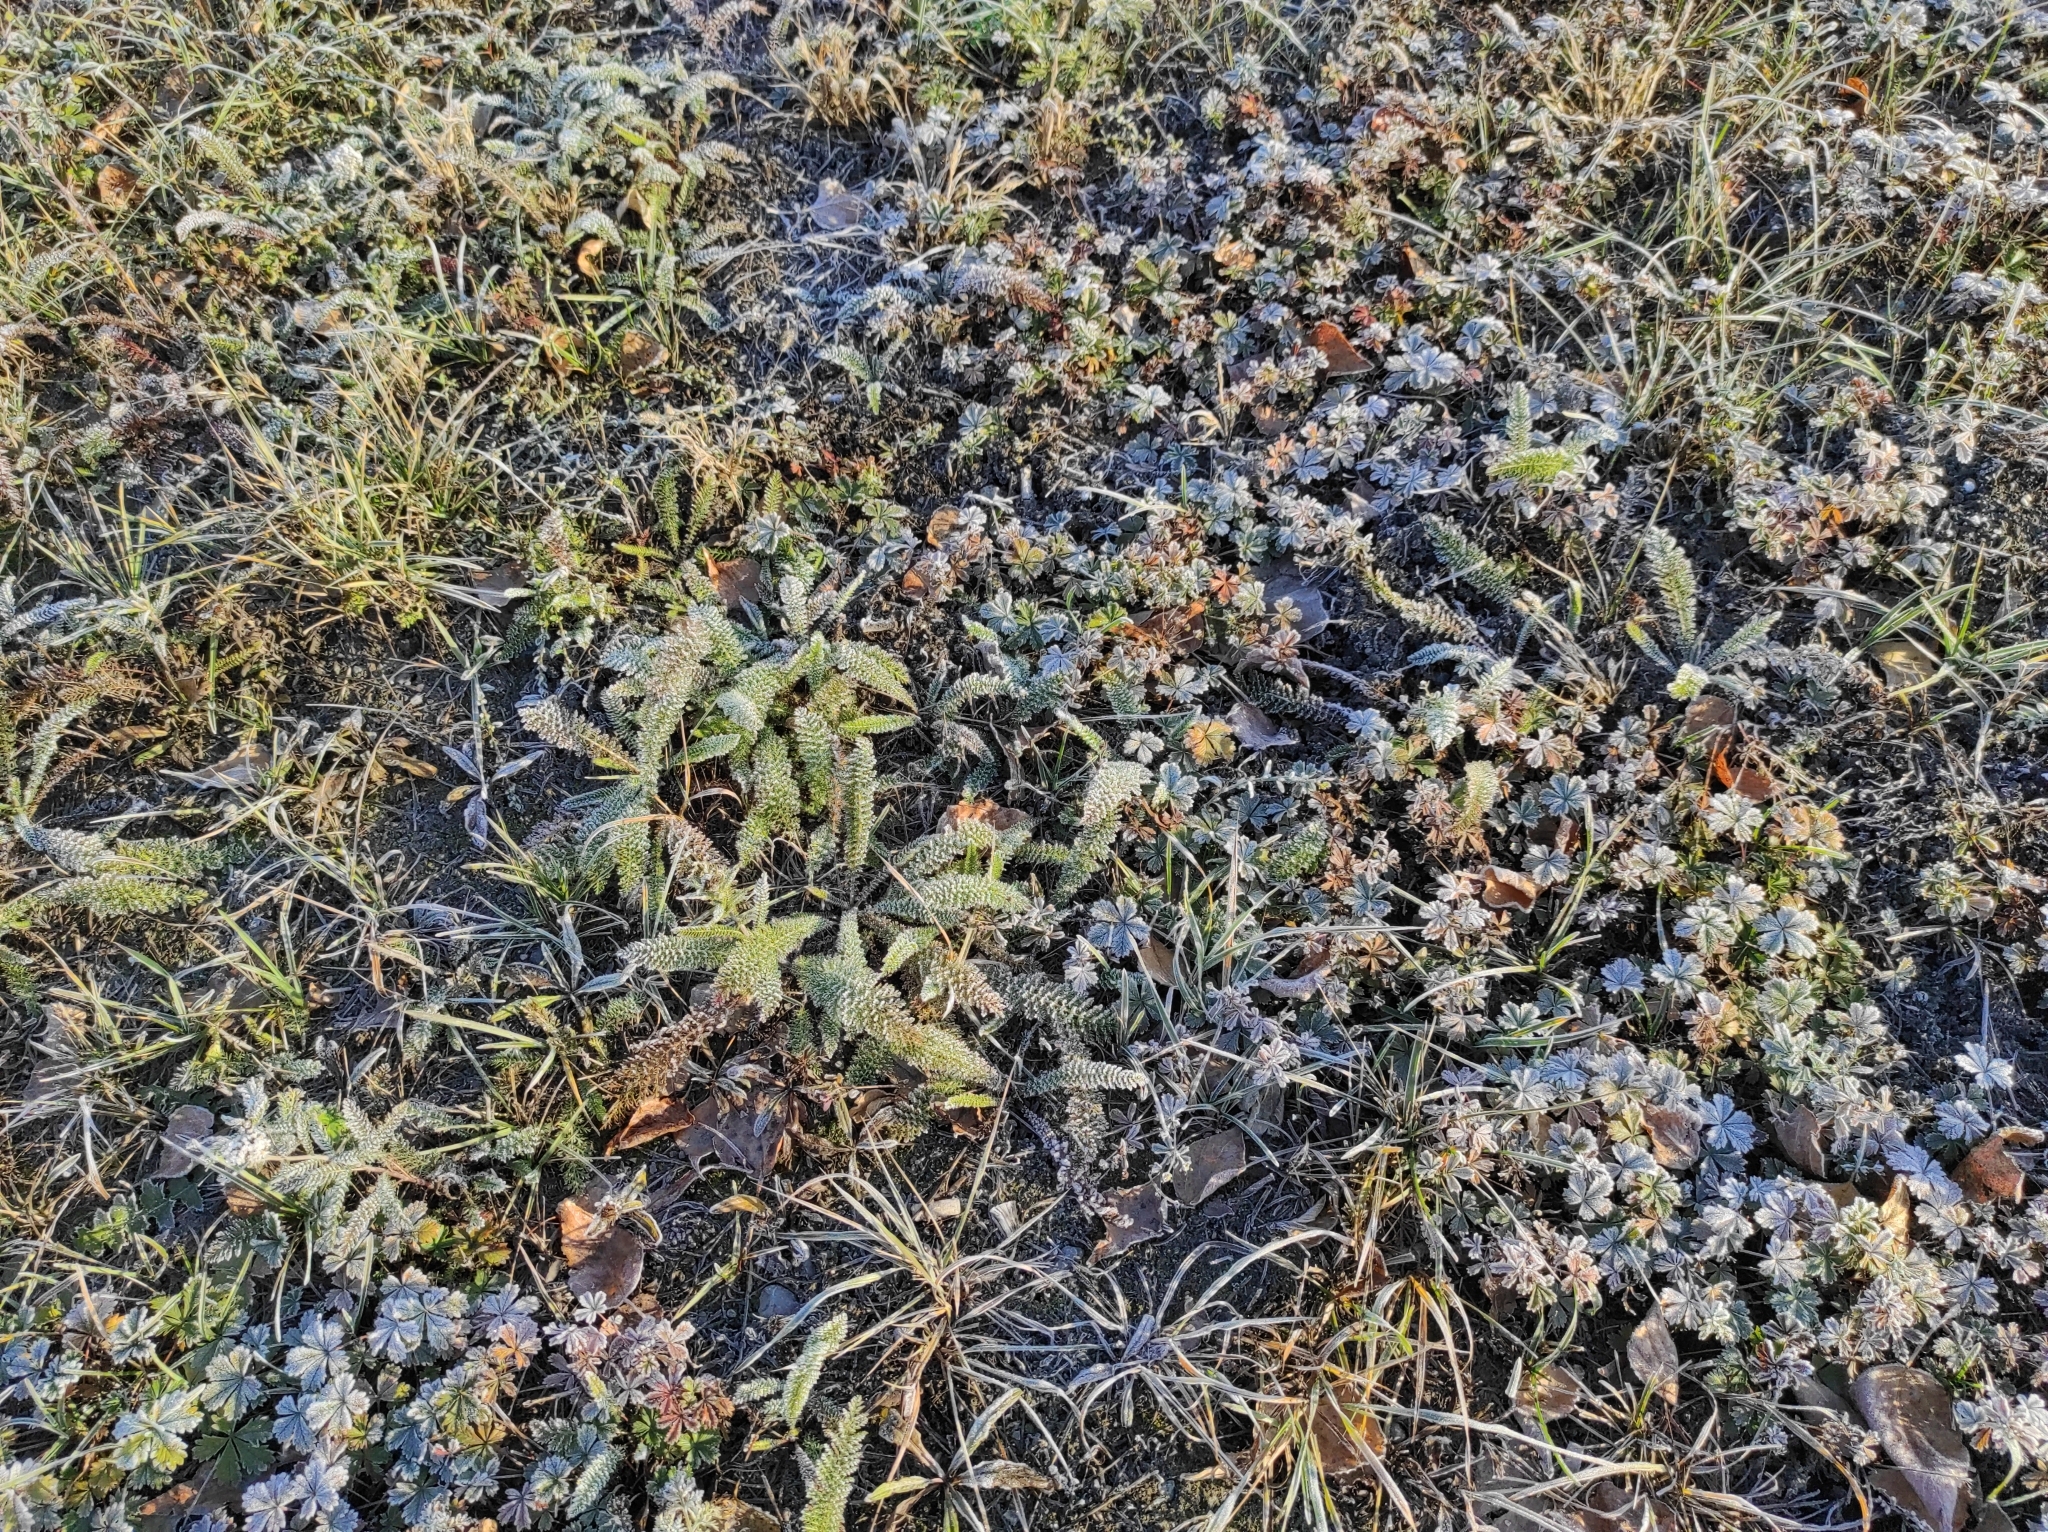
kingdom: Plantae
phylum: Tracheophyta
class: Magnoliopsida
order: Asterales
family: Asteraceae
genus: Achillea
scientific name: Achillea millefolium
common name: Yarrow
